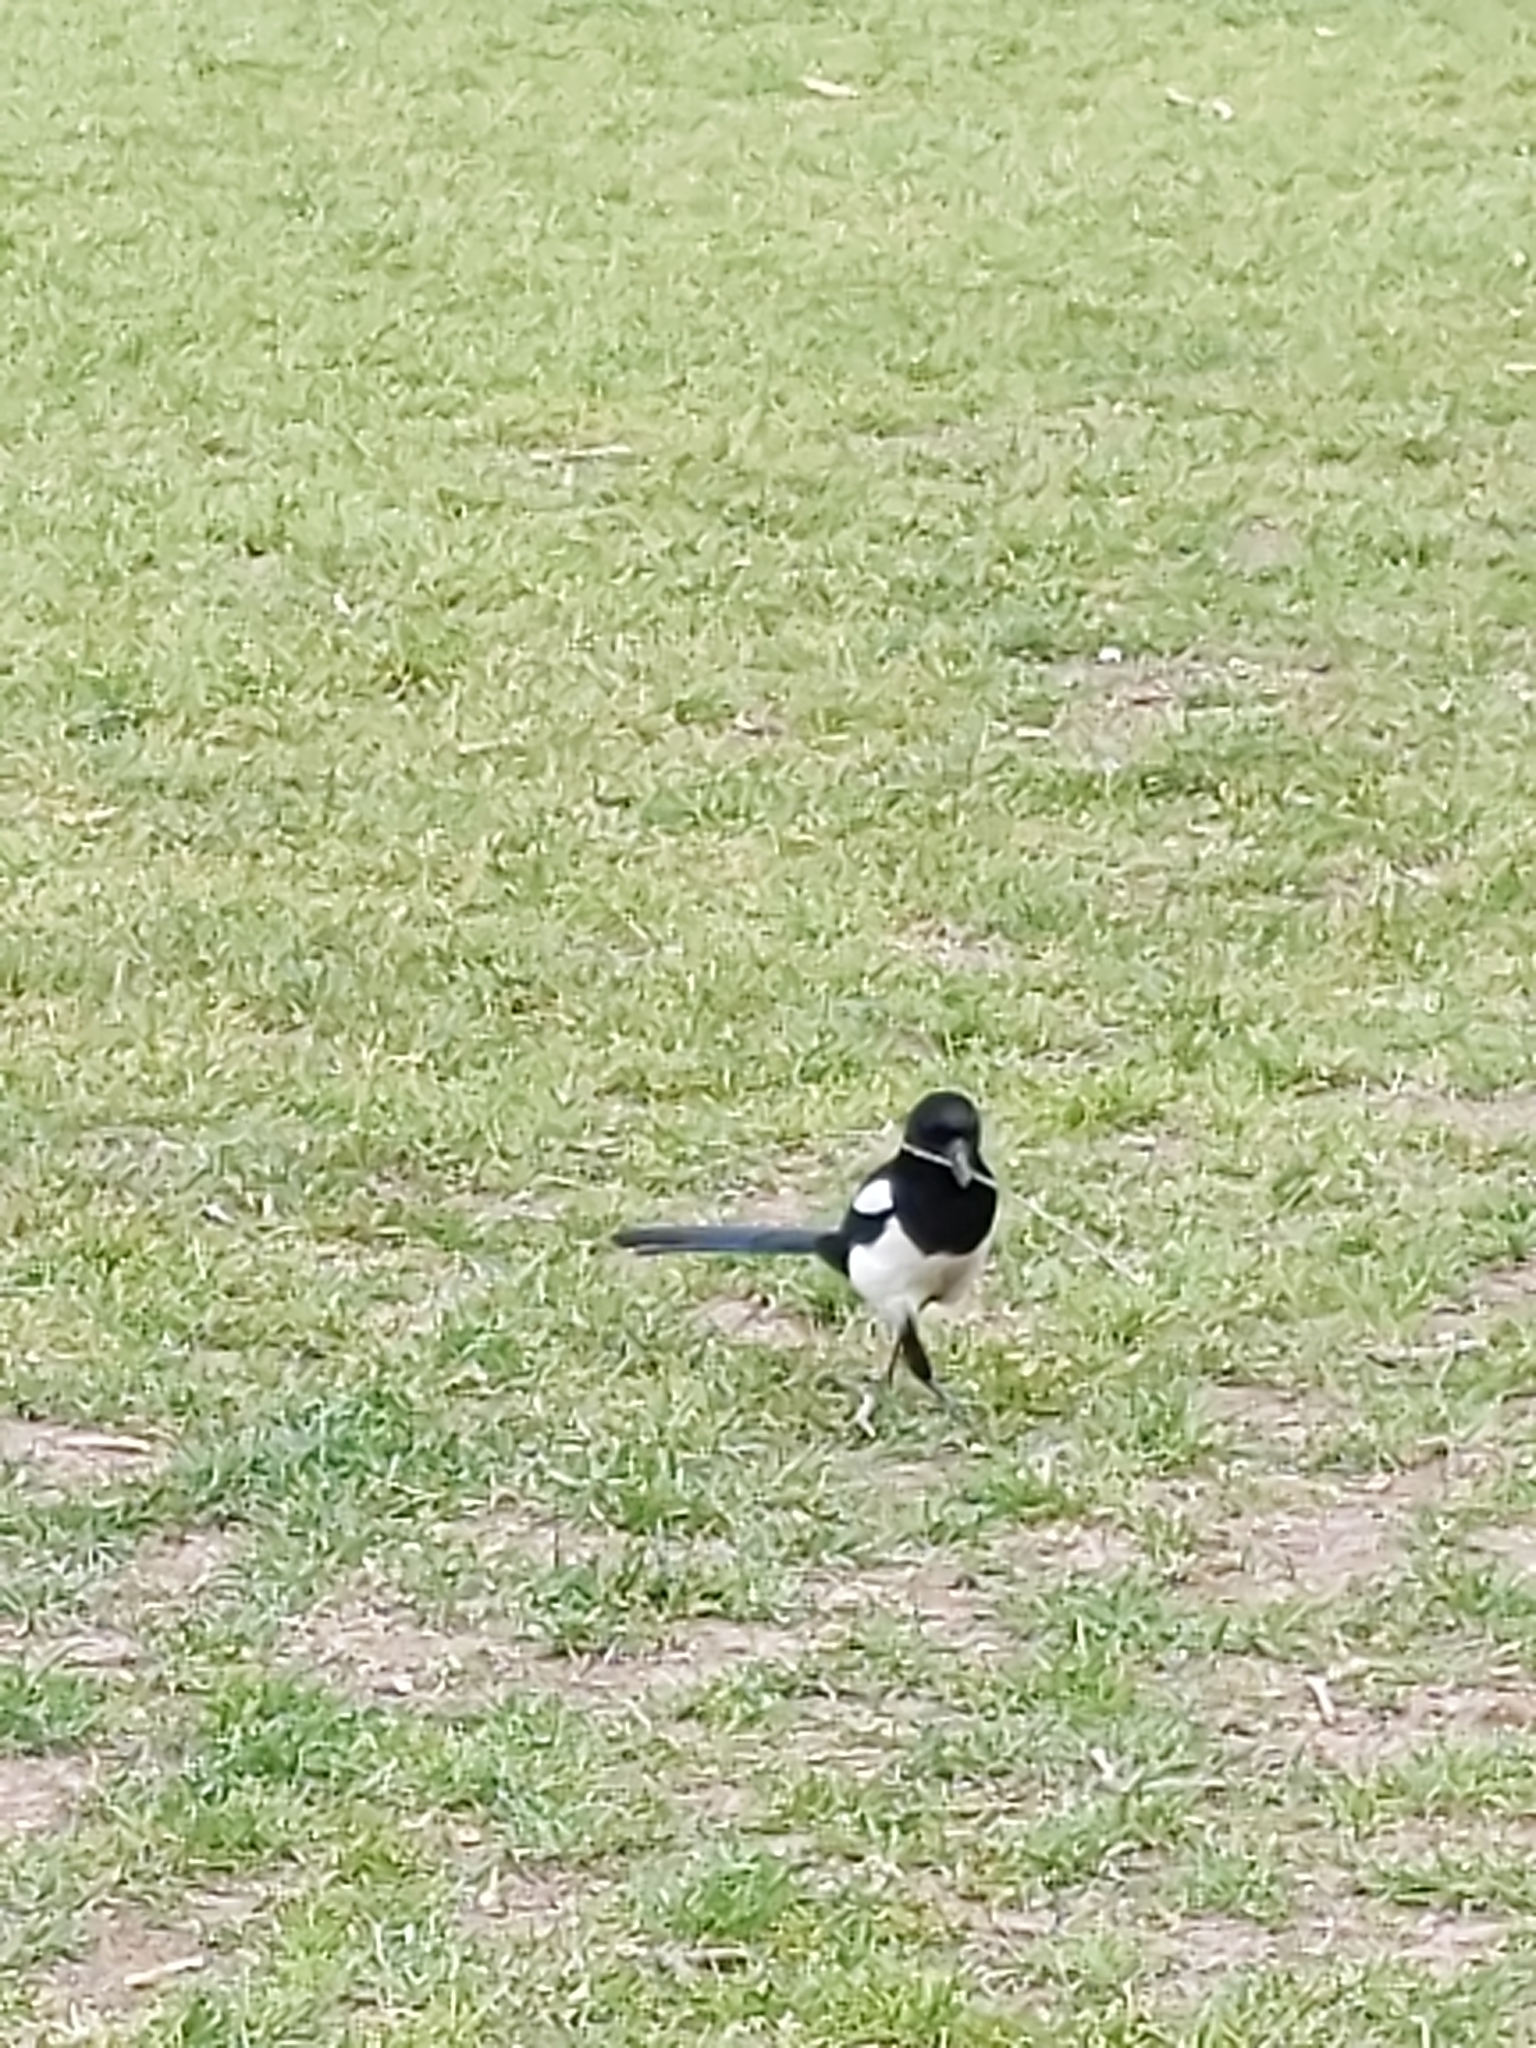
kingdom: Animalia
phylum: Chordata
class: Aves
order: Passeriformes
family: Corvidae
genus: Pica
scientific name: Pica pica
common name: Eurasian magpie
